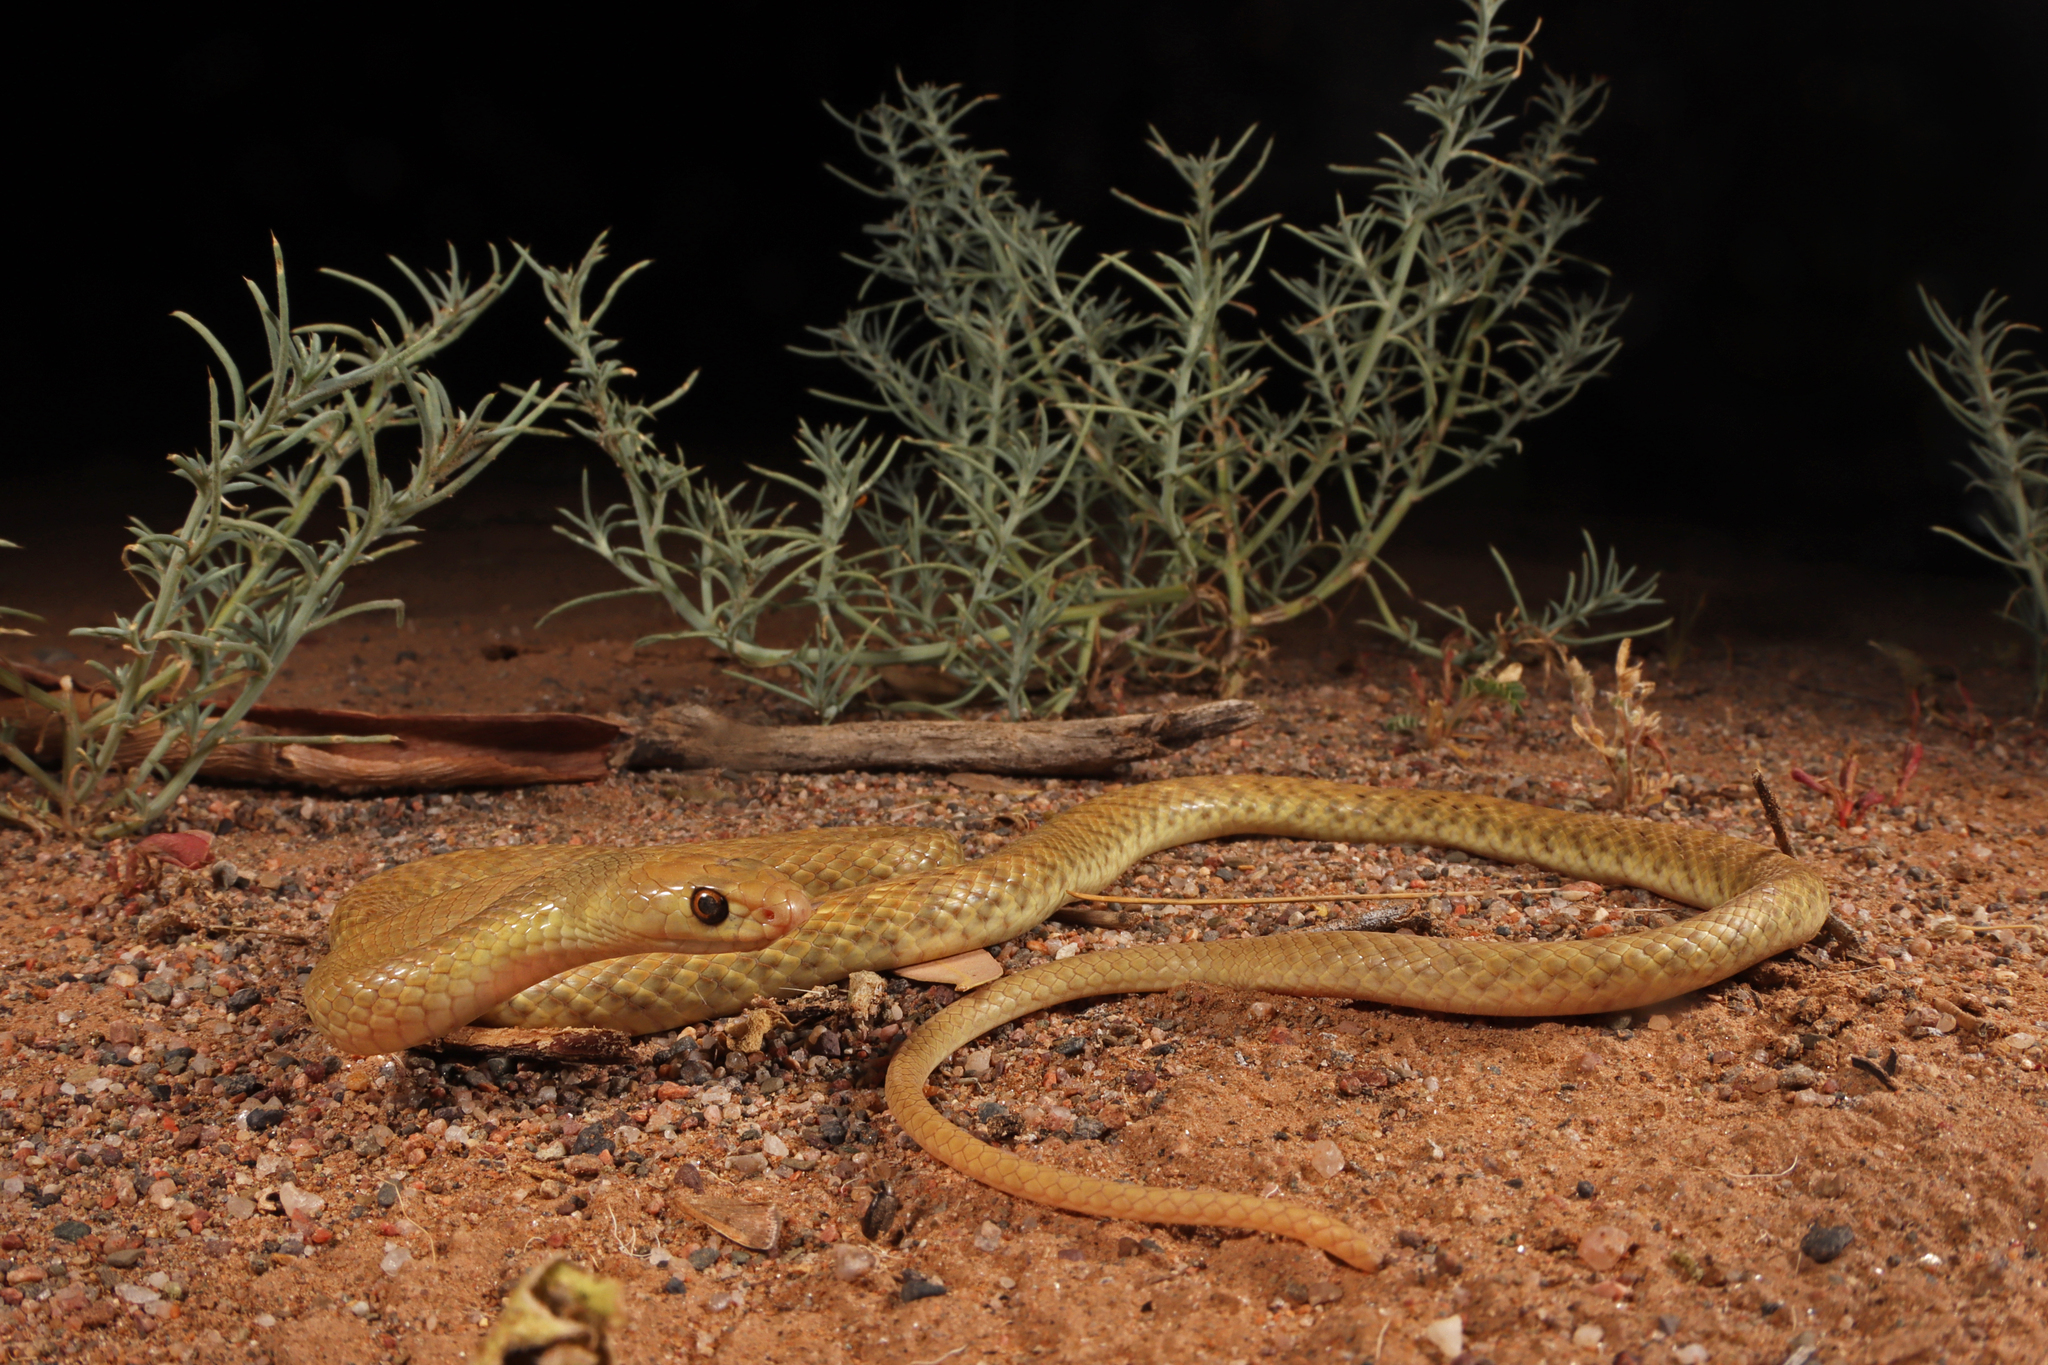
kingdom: Animalia
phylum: Chordata
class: Squamata
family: Elapidae
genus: Pseudonaja
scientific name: Pseudonaja mengdeni
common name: Gwardar
